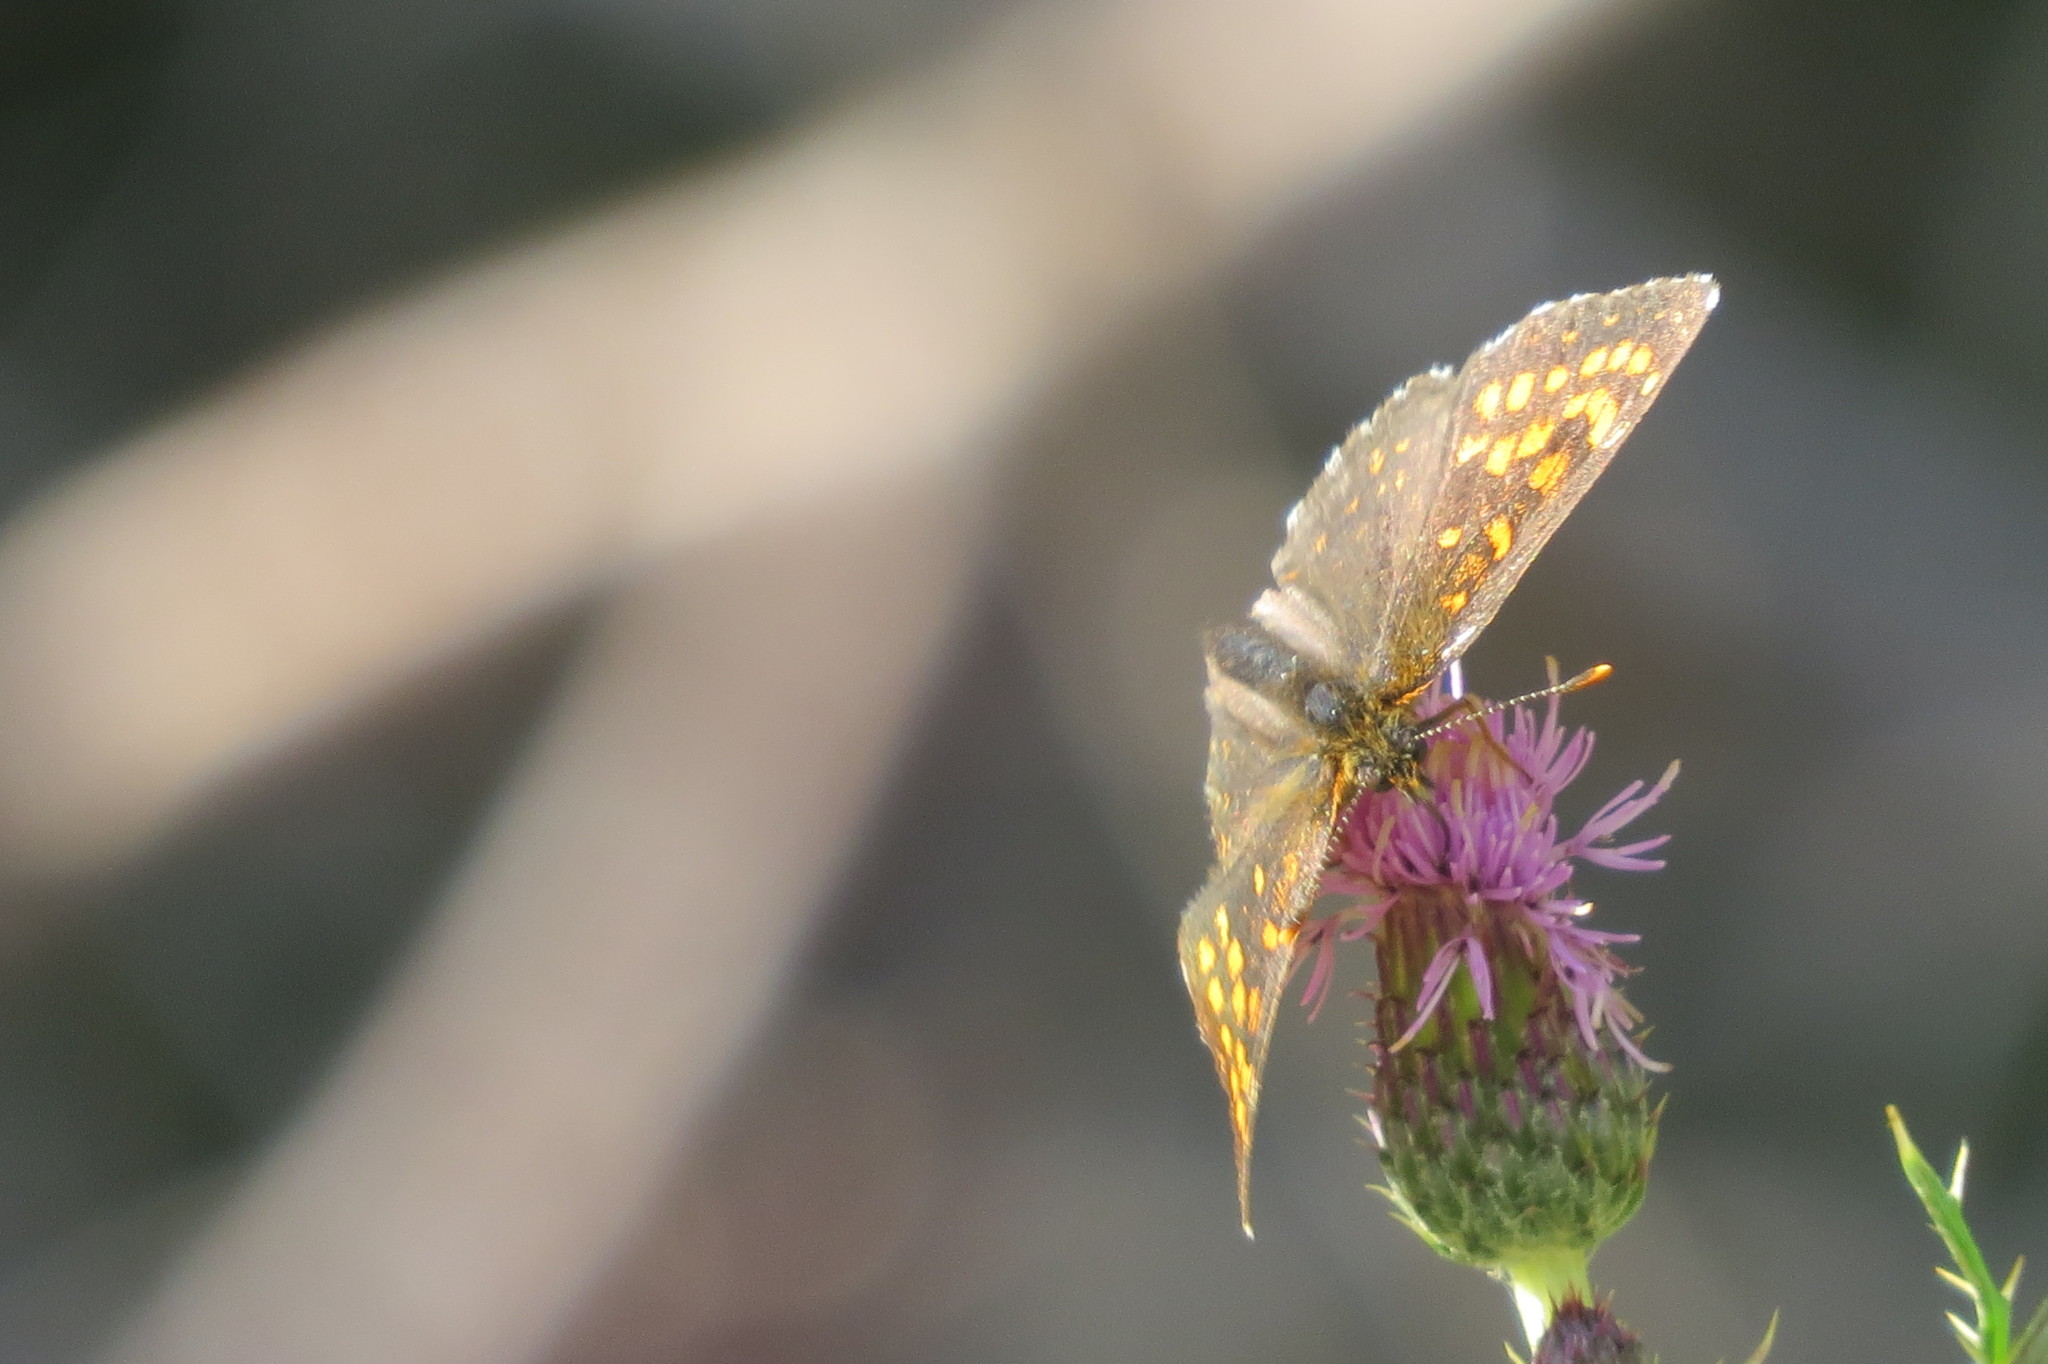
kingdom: Animalia
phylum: Arthropoda
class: Insecta
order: Lepidoptera
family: Nymphalidae
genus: Melitaea
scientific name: Melitaea diamina
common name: False heath fritillary
